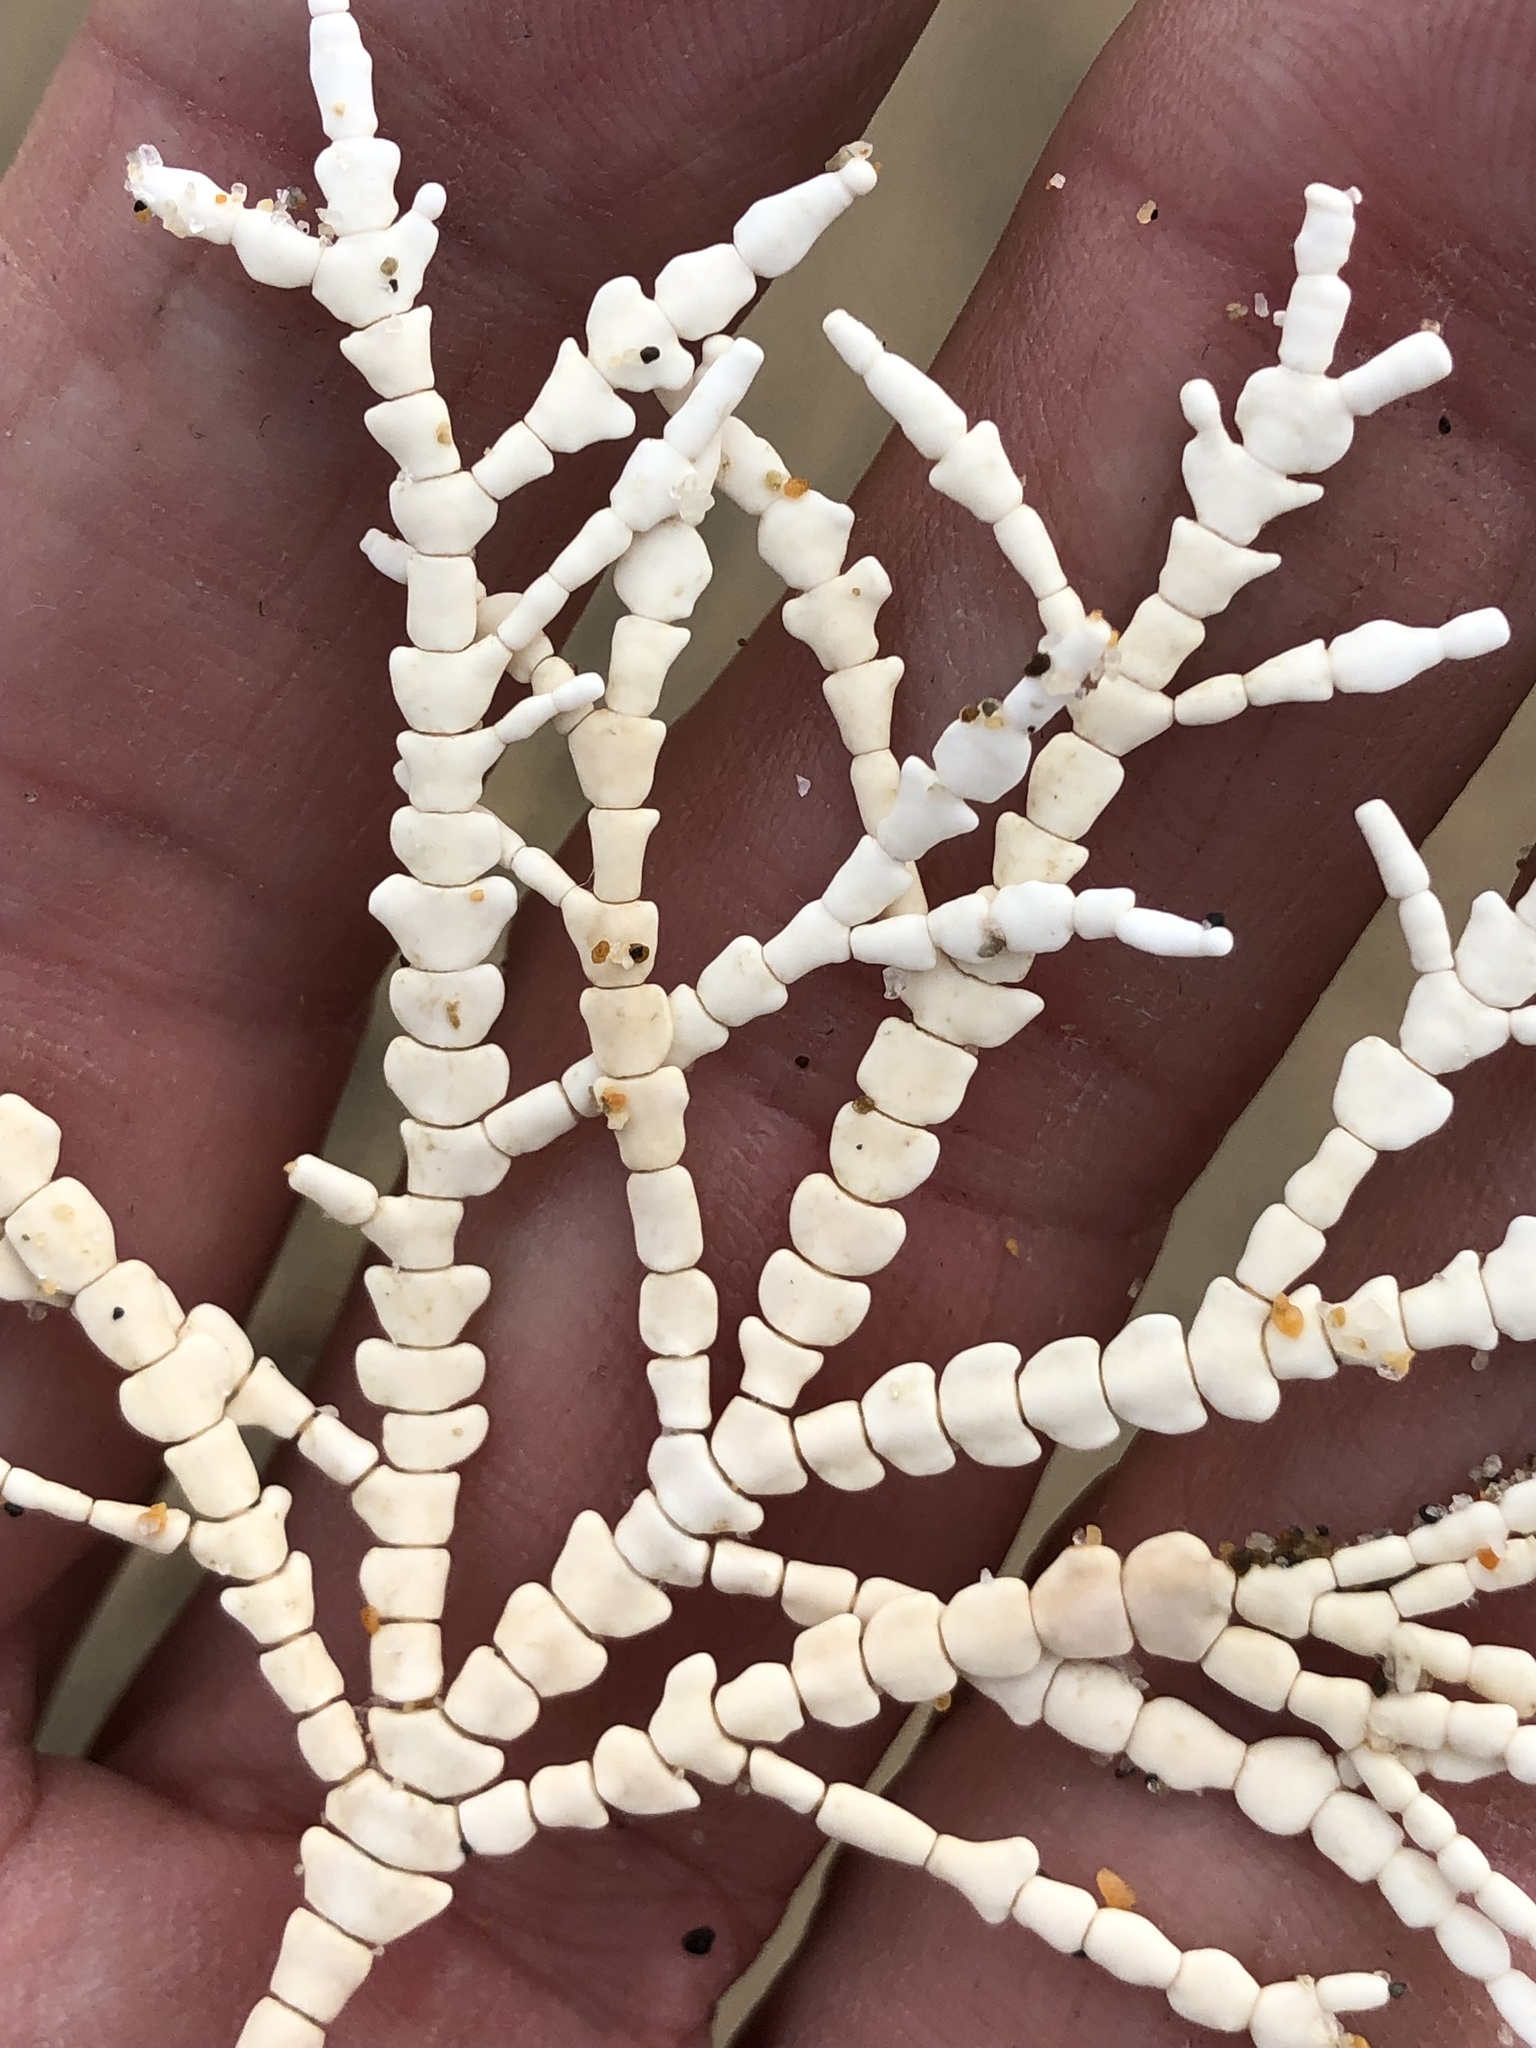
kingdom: Plantae
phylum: Rhodophyta
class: Florideophyceae
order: Corallinales
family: Corallinaceae
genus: Calliarthron
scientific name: Calliarthron tuberculosum
